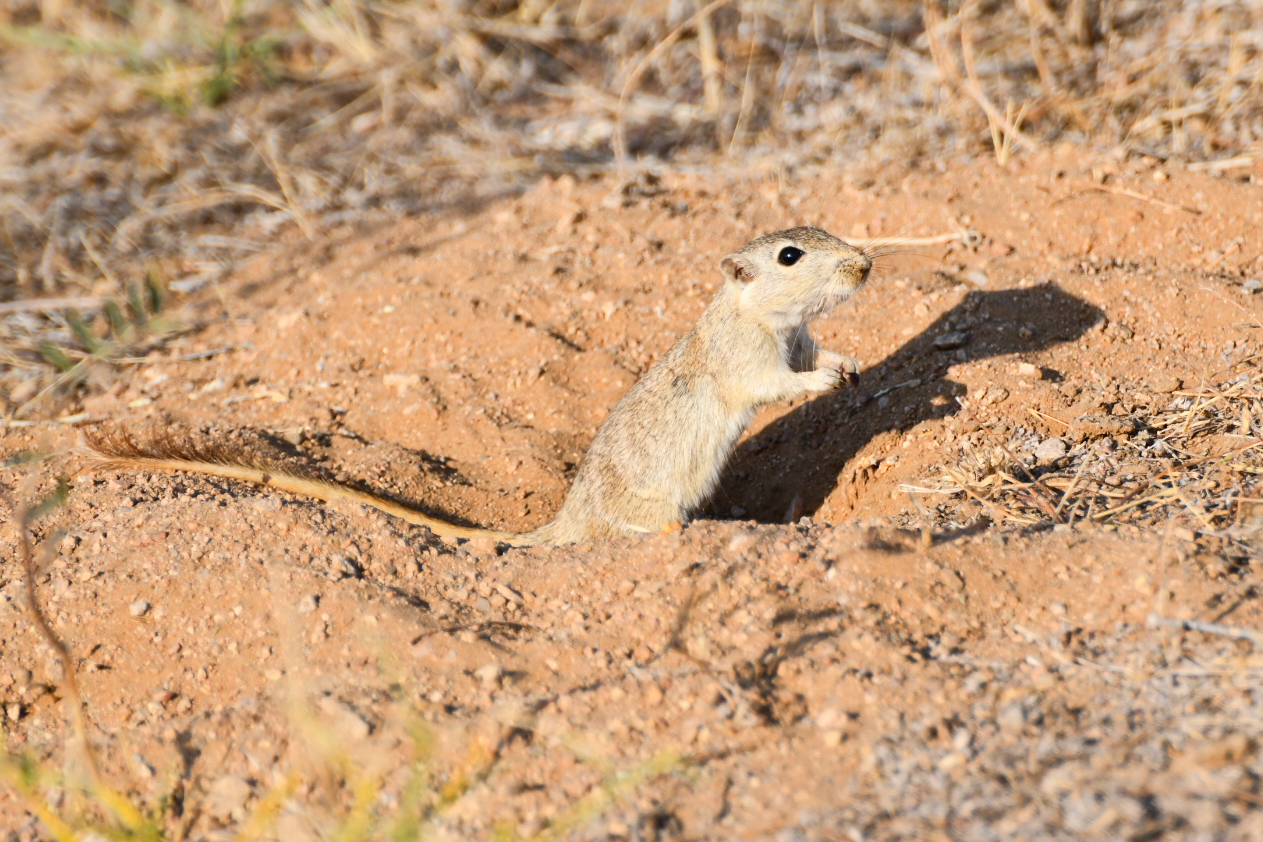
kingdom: Animalia
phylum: Chordata
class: Mammalia
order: Rodentia
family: Muridae
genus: Meriones
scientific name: Meriones hurrianae
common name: Indian desert jird
